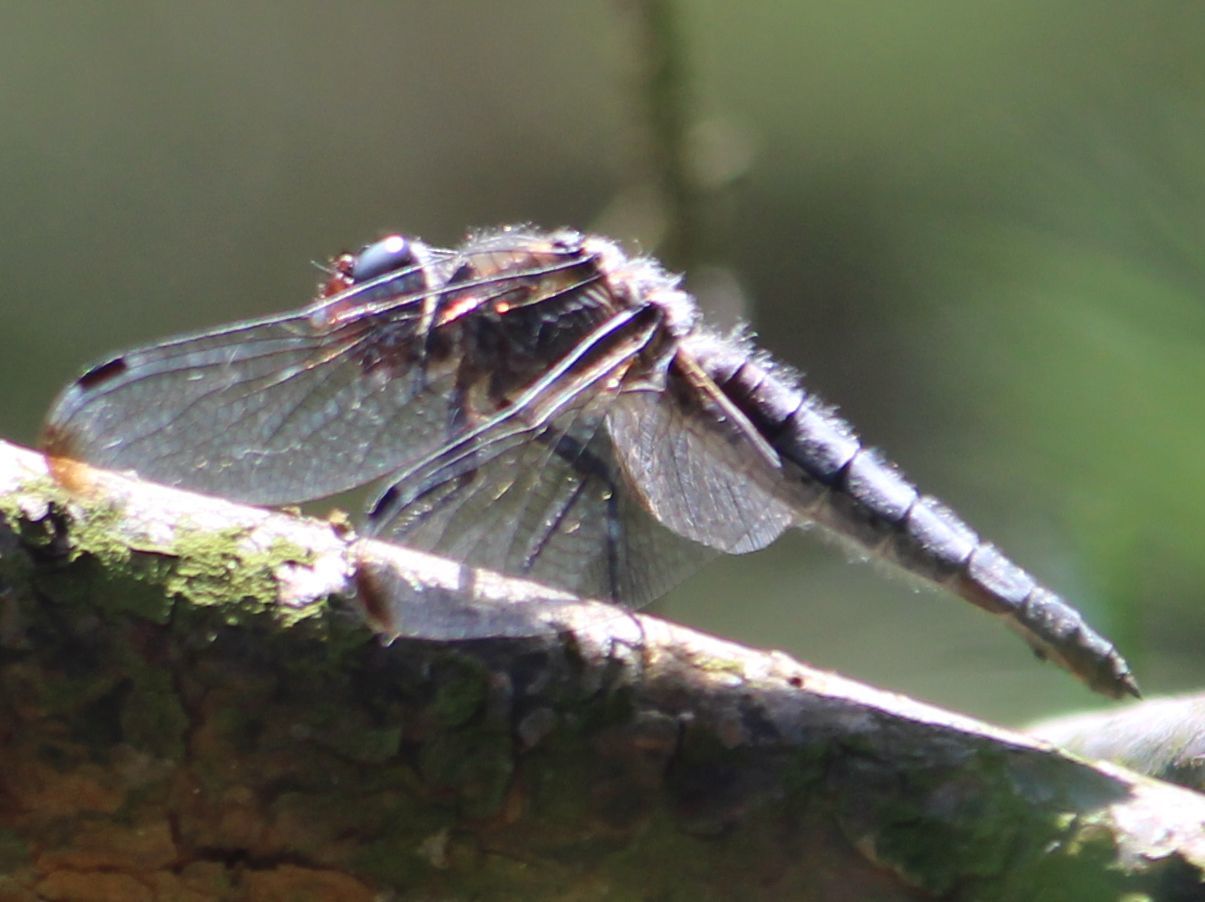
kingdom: Animalia
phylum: Arthropoda
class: Insecta
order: Odonata
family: Libellulidae
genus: Libellula
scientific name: Libellula fulva
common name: Blue chaser
